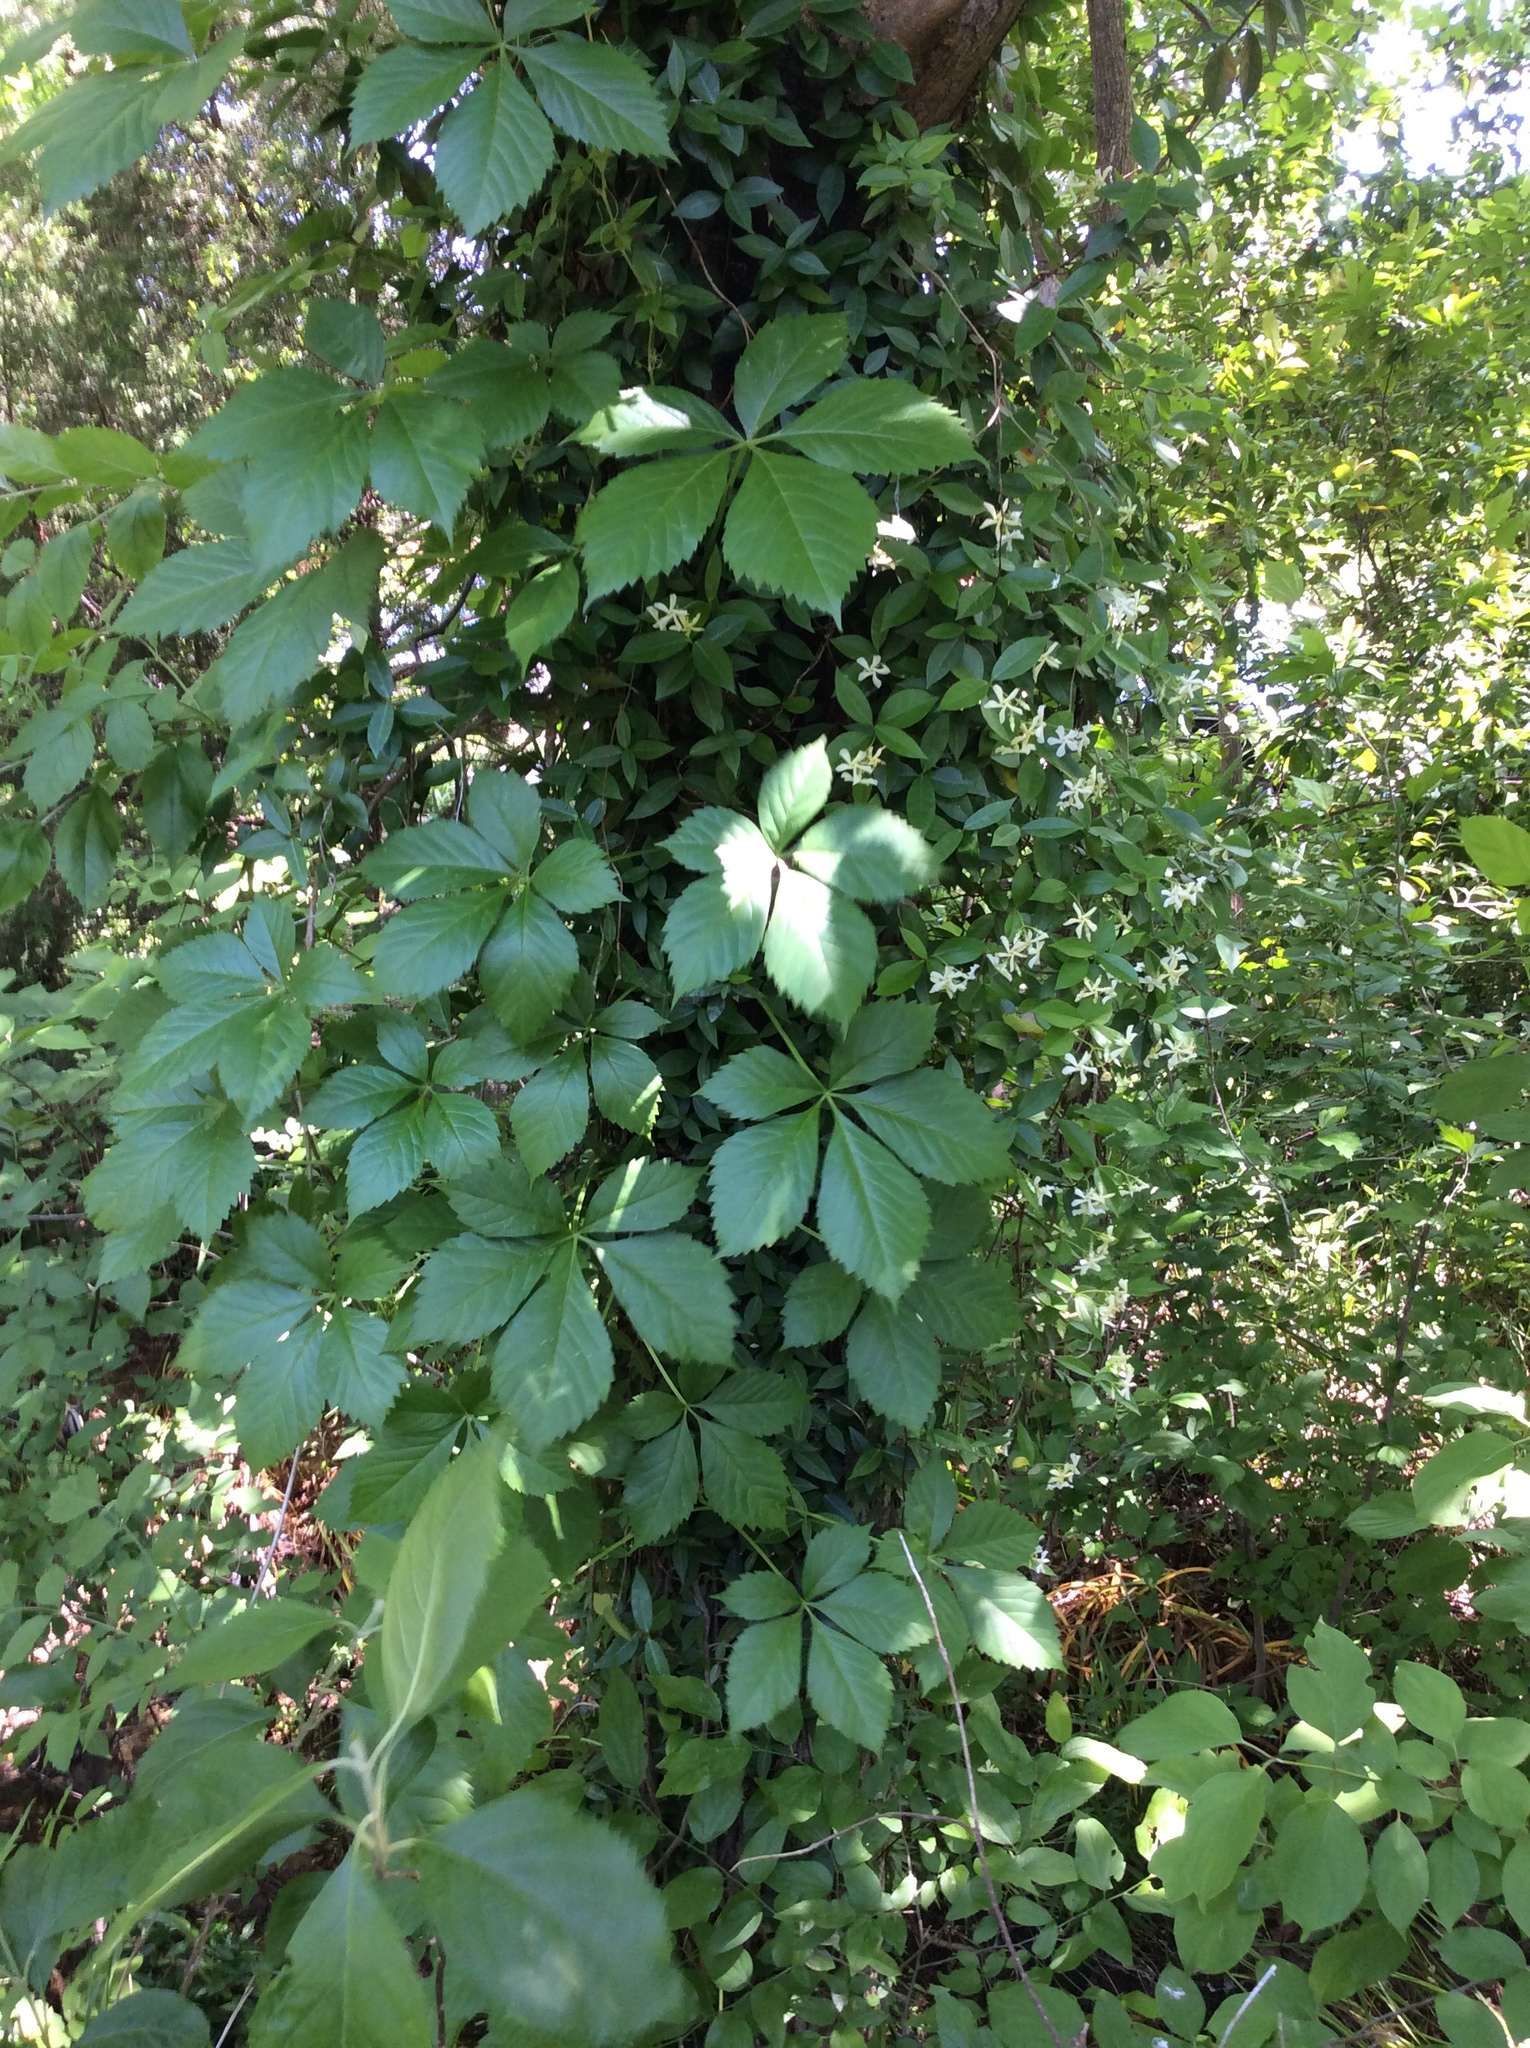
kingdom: Plantae
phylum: Tracheophyta
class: Magnoliopsida
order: Vitales
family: Vitaceae
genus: Parthenocissus
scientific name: Parthenocissus quinquefolia
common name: Virginia-creeper
